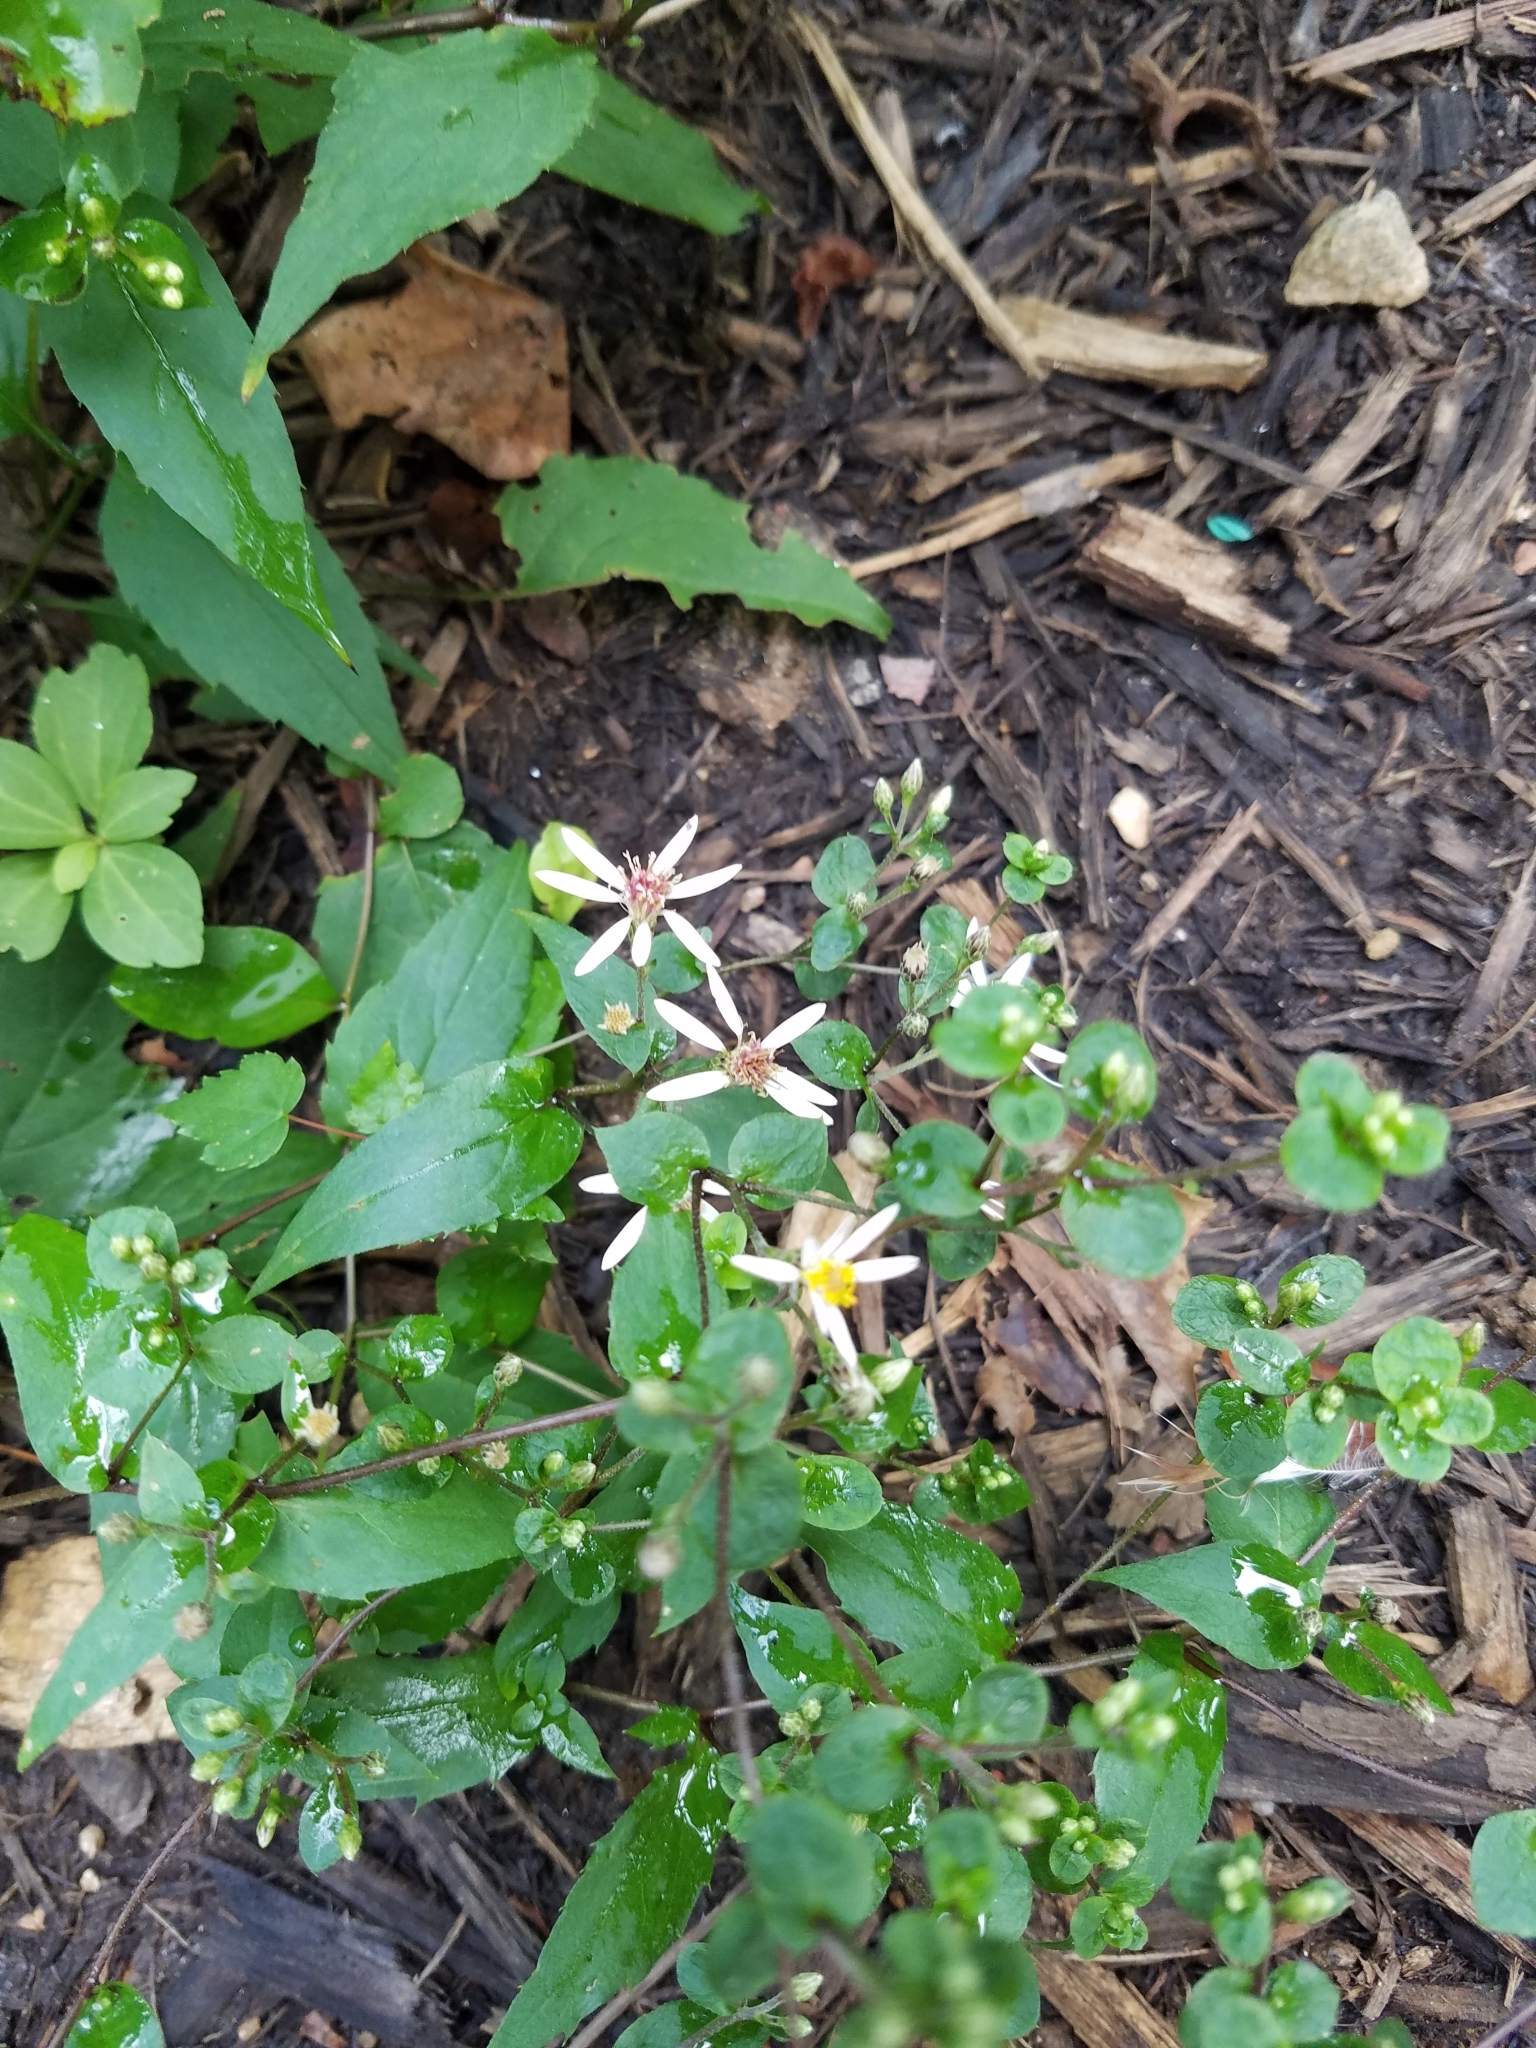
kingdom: Plantae
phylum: Tracheophyta
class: Magnoliopsida
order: Asterales
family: Asteraceae
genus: Eurybia
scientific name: Eurybia divaricata
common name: White wood aster
